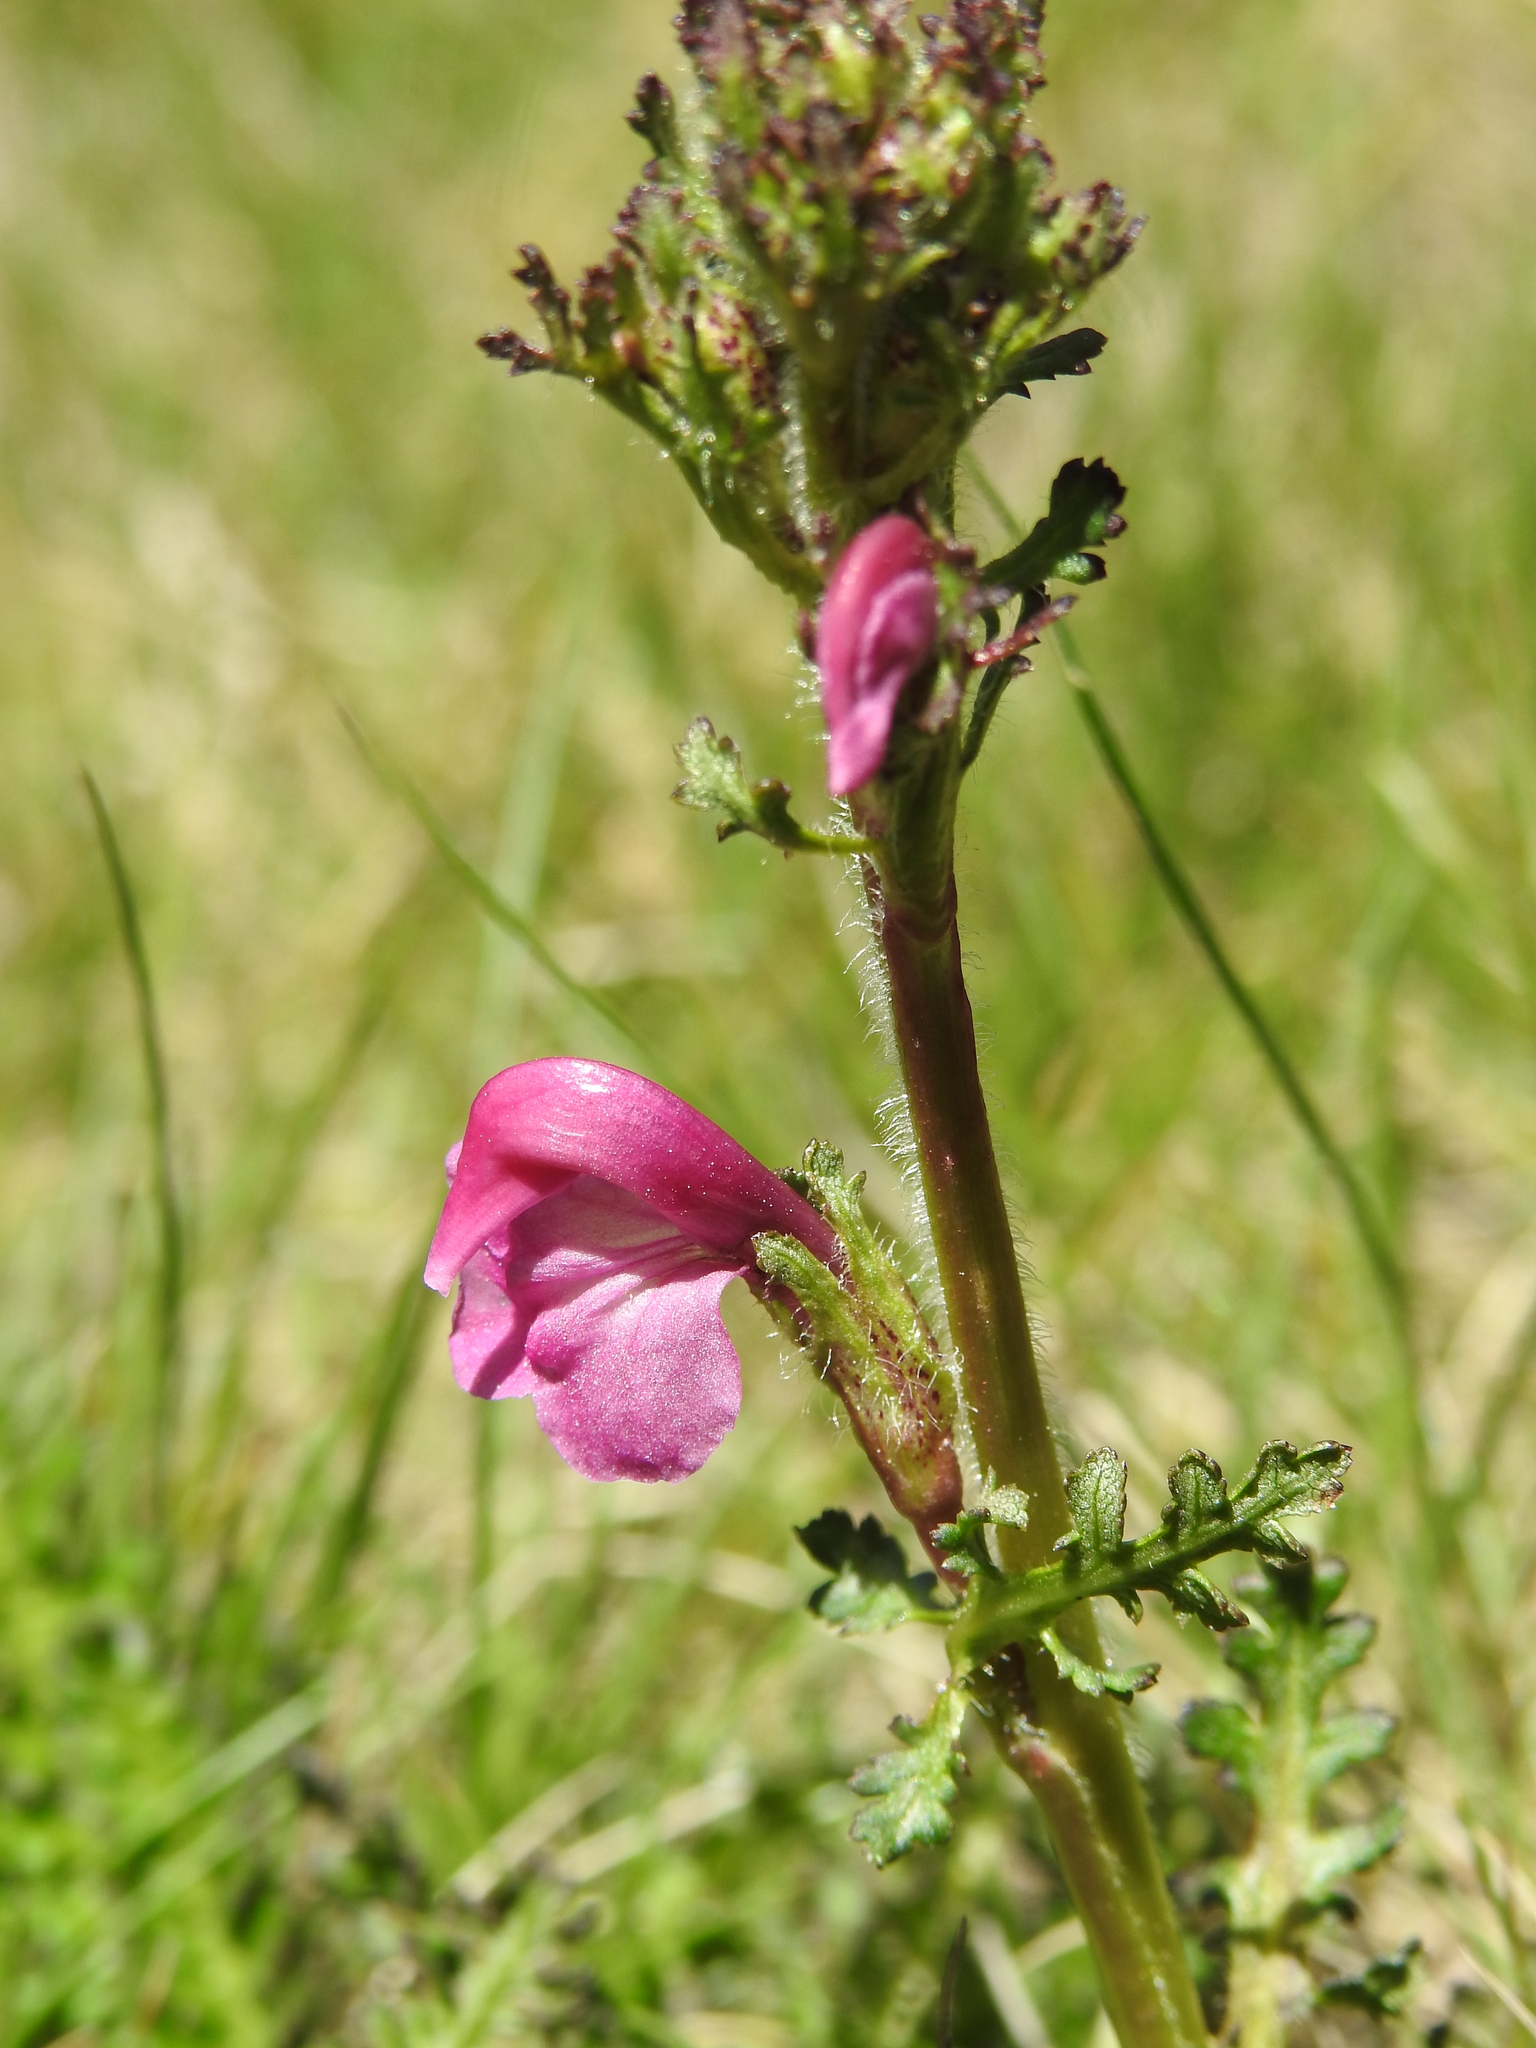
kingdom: Plantae
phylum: Tracheophyta
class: Magnoliopsida
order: Lamiales
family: Orobanchaceae
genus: Pedicularis
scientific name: Pedicularis pyrenaica
